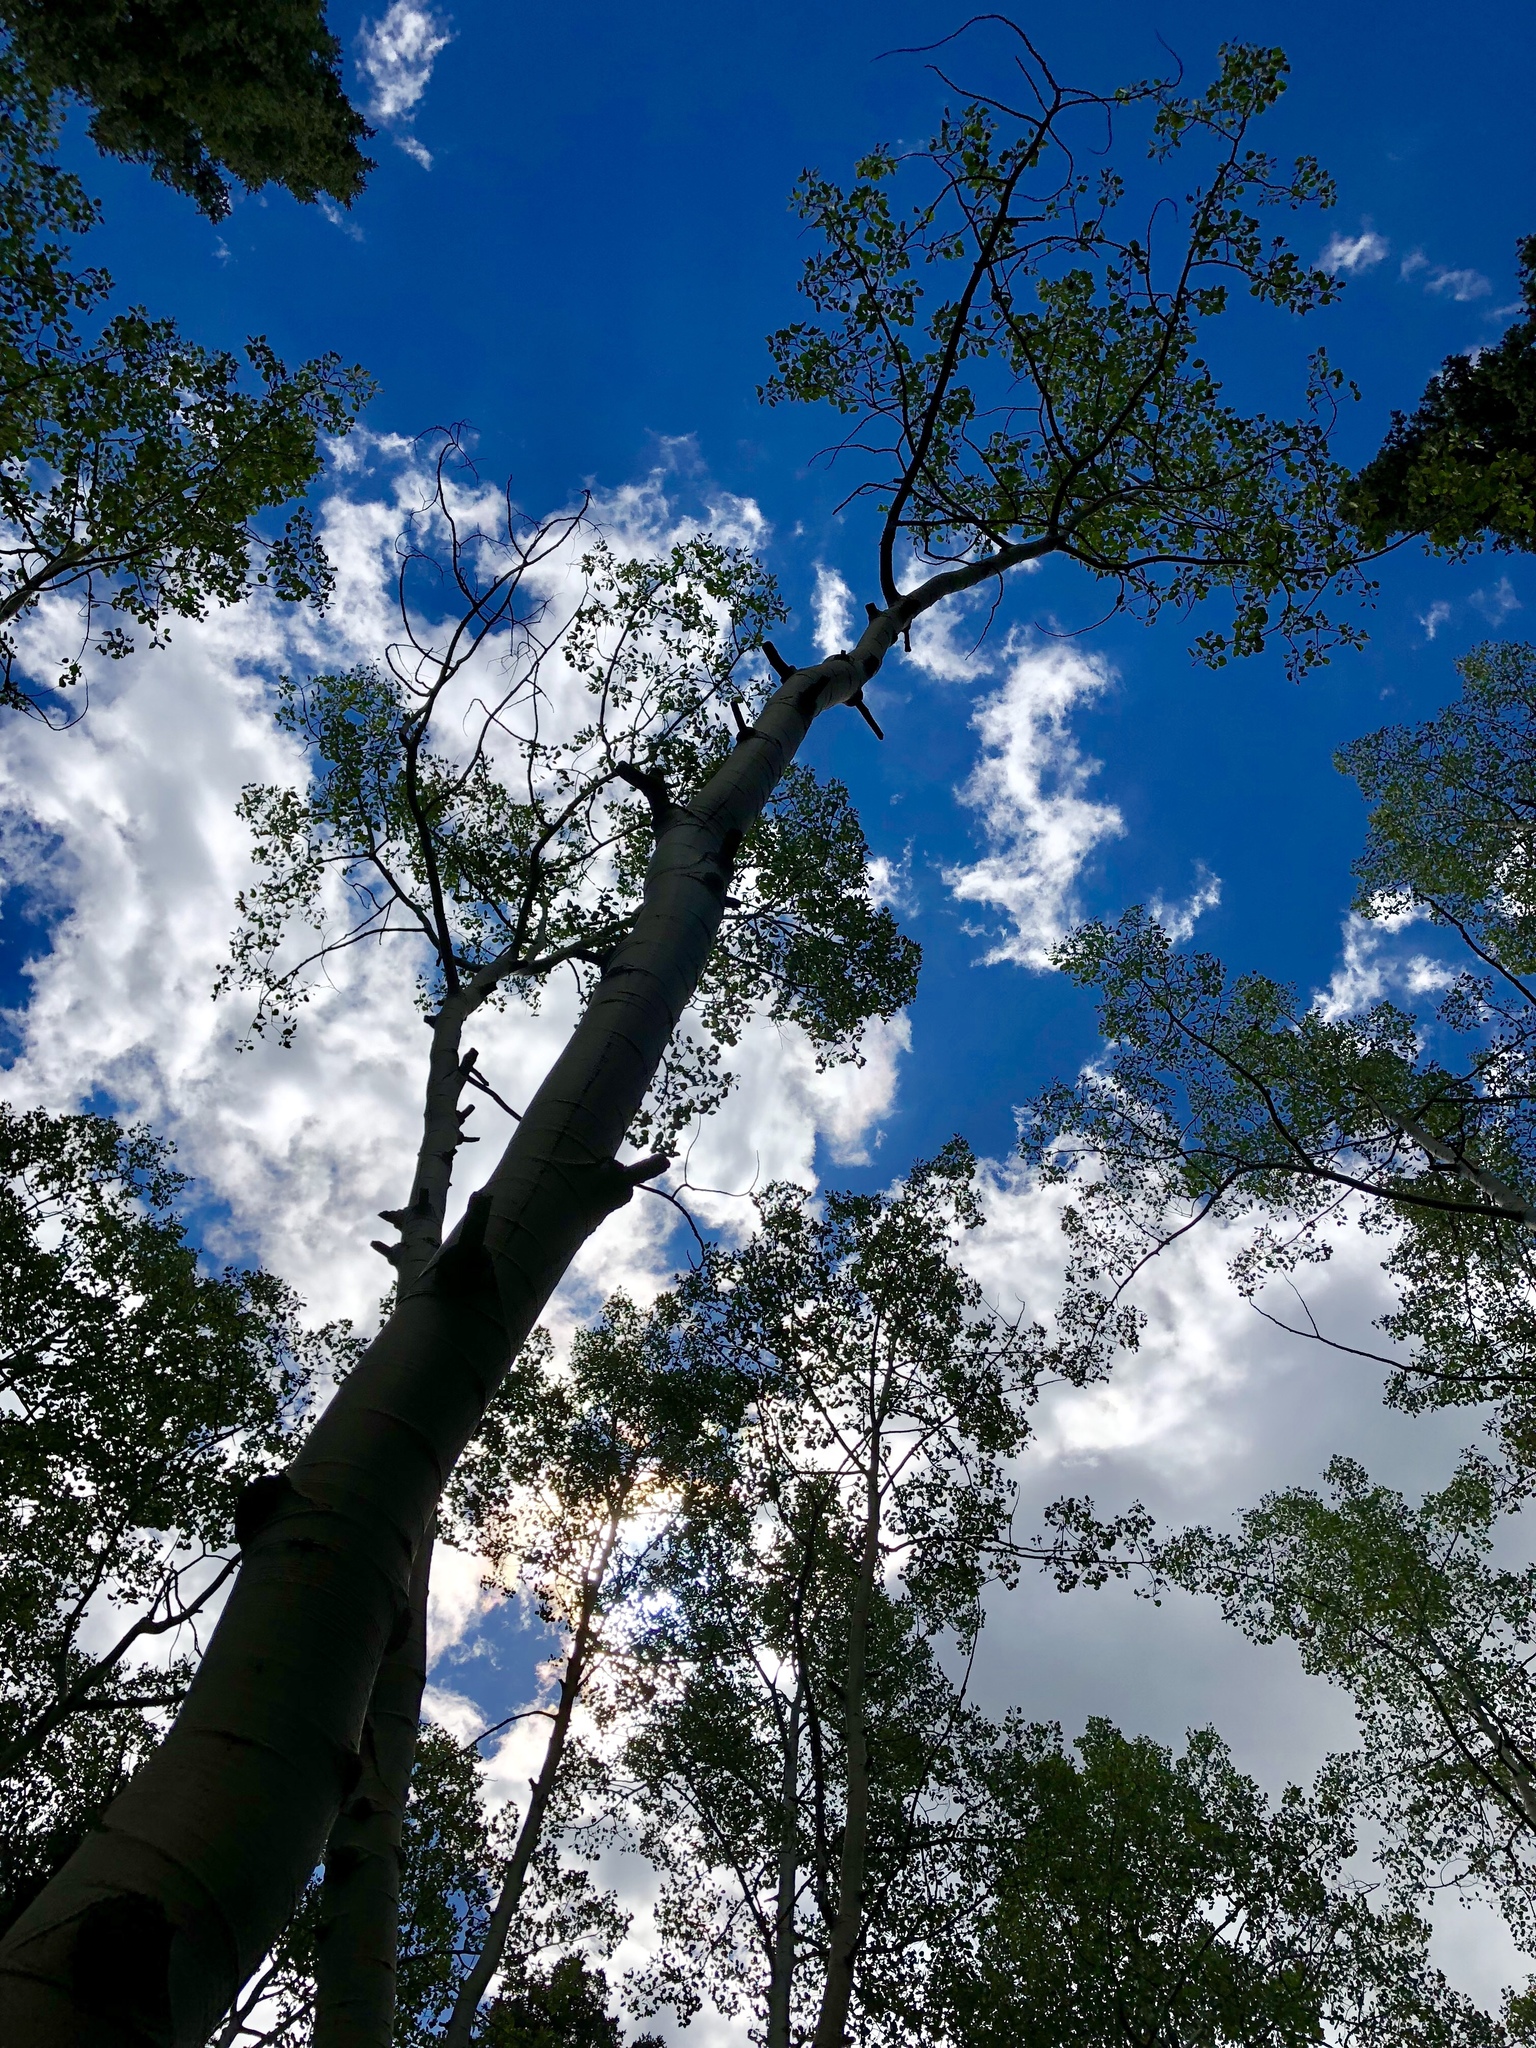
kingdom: Plantae
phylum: Tracheophyta
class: Magnoliopsida
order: Malpighiales
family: Salicaceae
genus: Populus
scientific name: Populus tremuloides
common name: Quaking aspen
